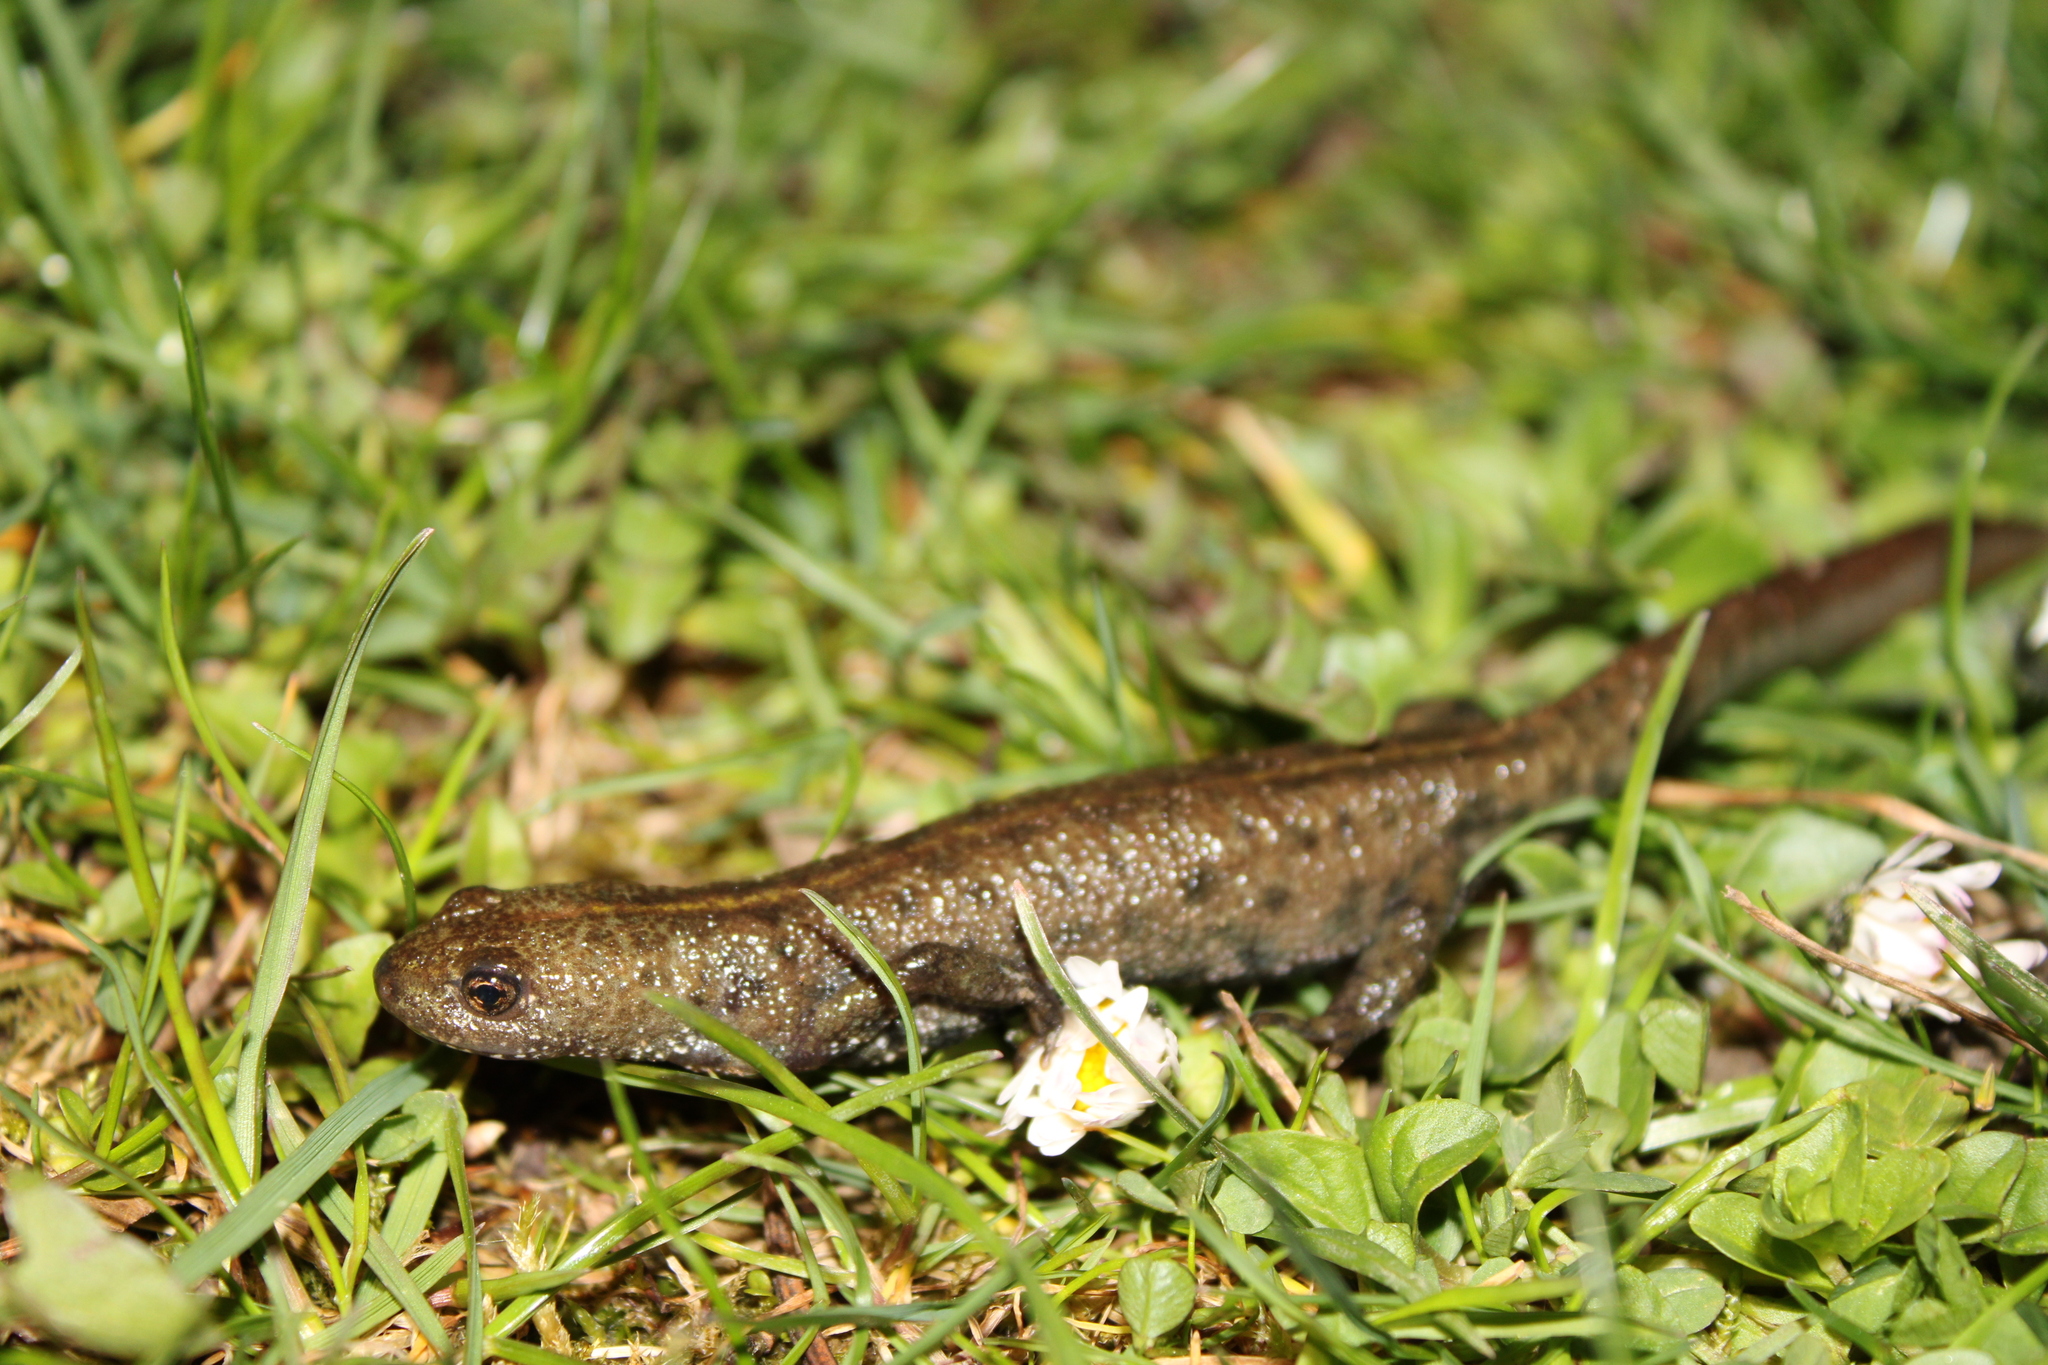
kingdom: Animalia
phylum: Chordata
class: Amphibia
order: Caudata
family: Salamandridae
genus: Triturus
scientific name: Triturus carnifex
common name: Italian crested newt
